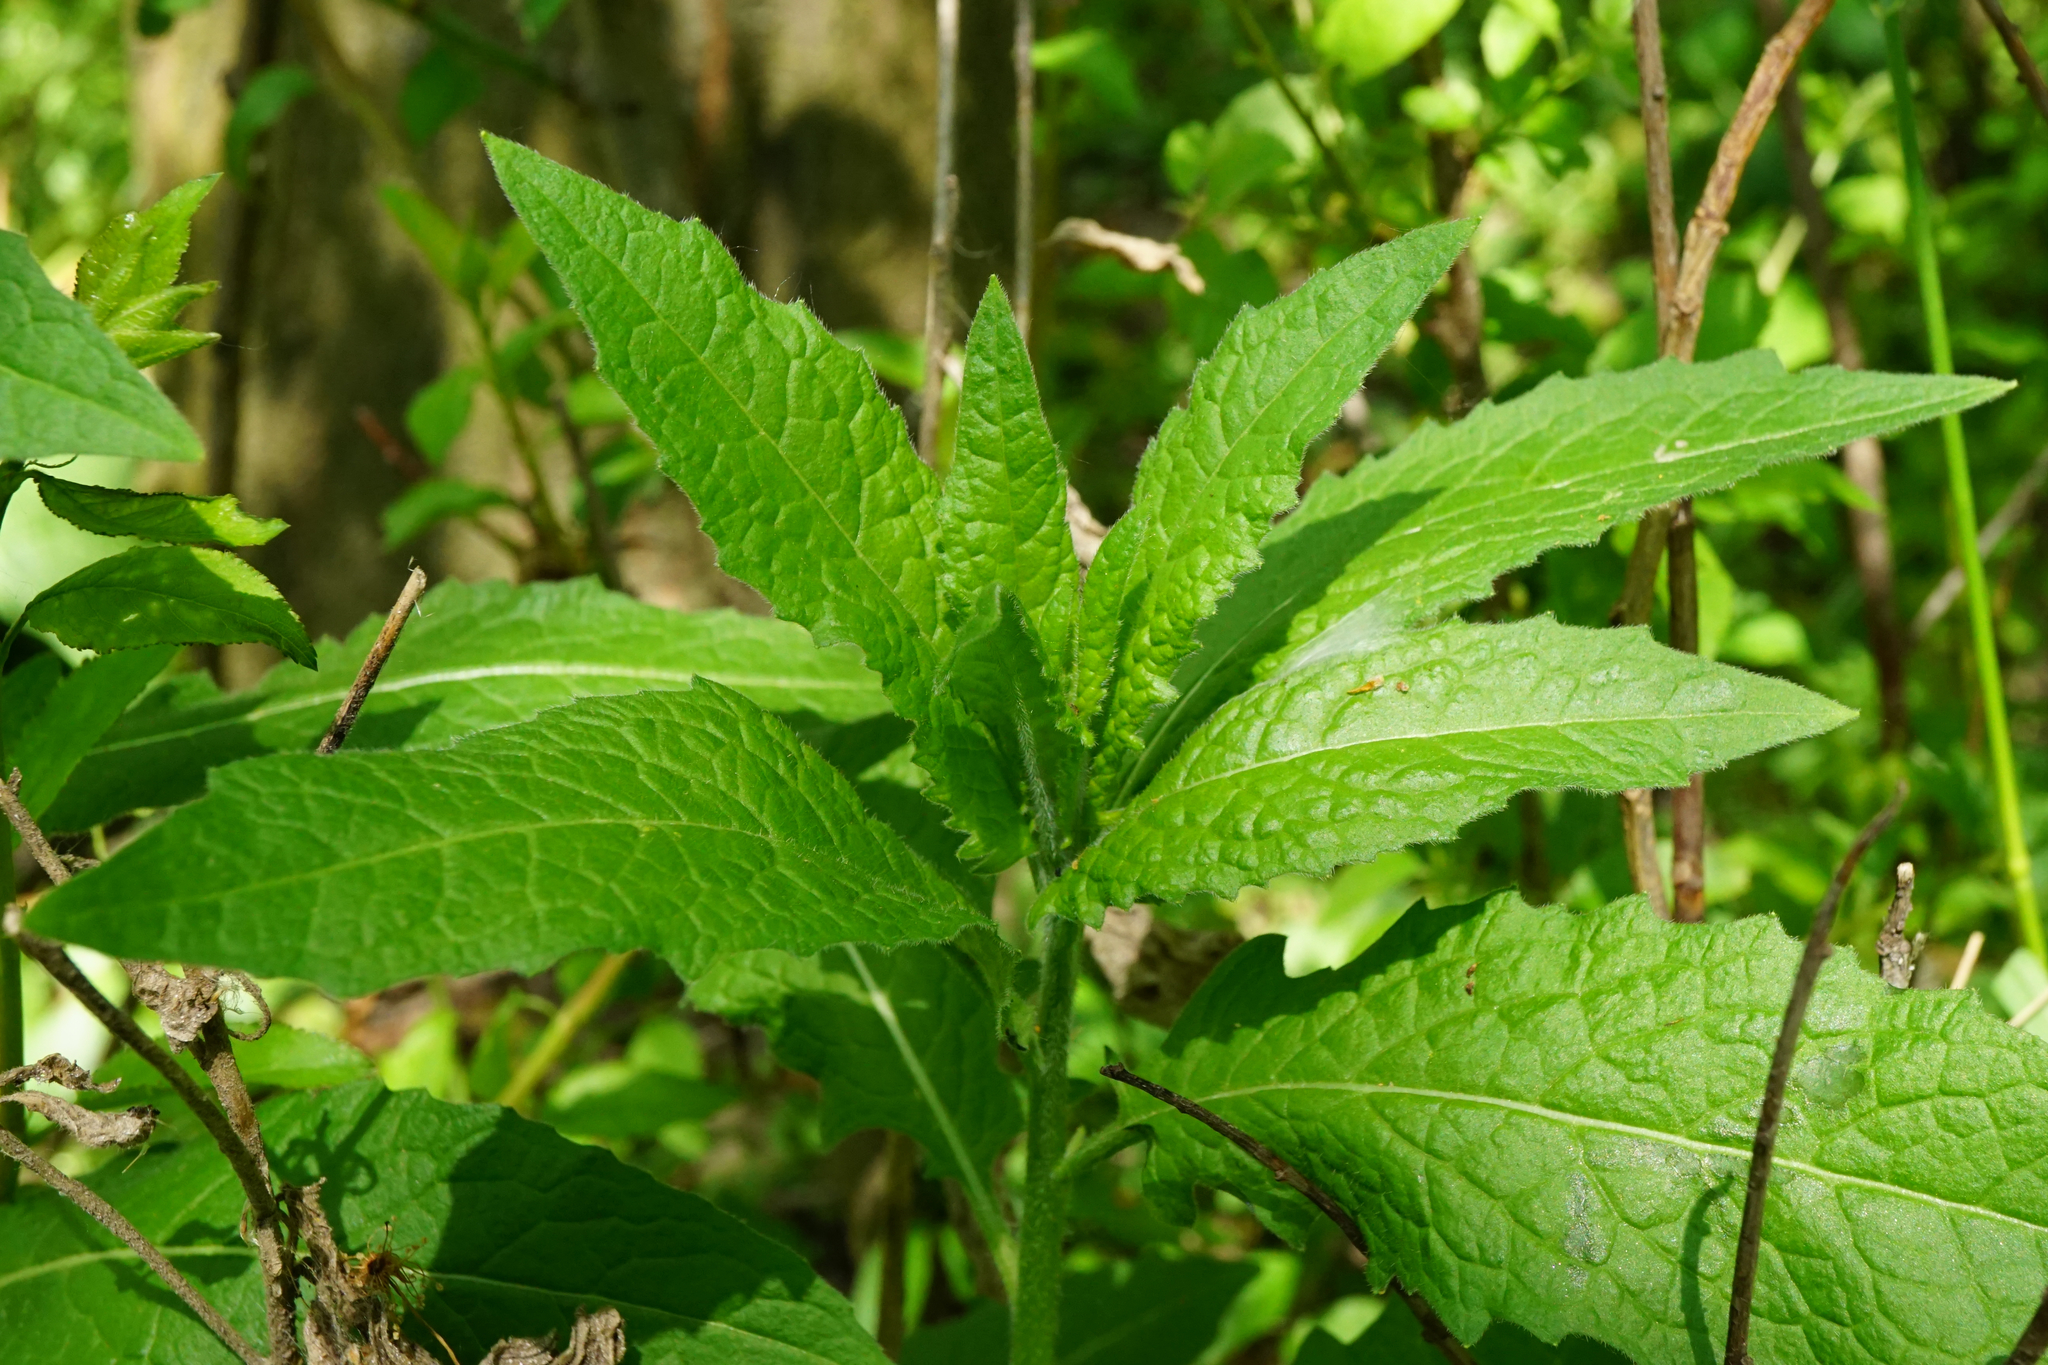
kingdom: Plantae
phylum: Tracheophyta
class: Magnoliopsida
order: Brassicales
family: Brassicaceae
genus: Sisymbrium
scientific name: Sisymbrium strictissimum
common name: Perennial rocket
